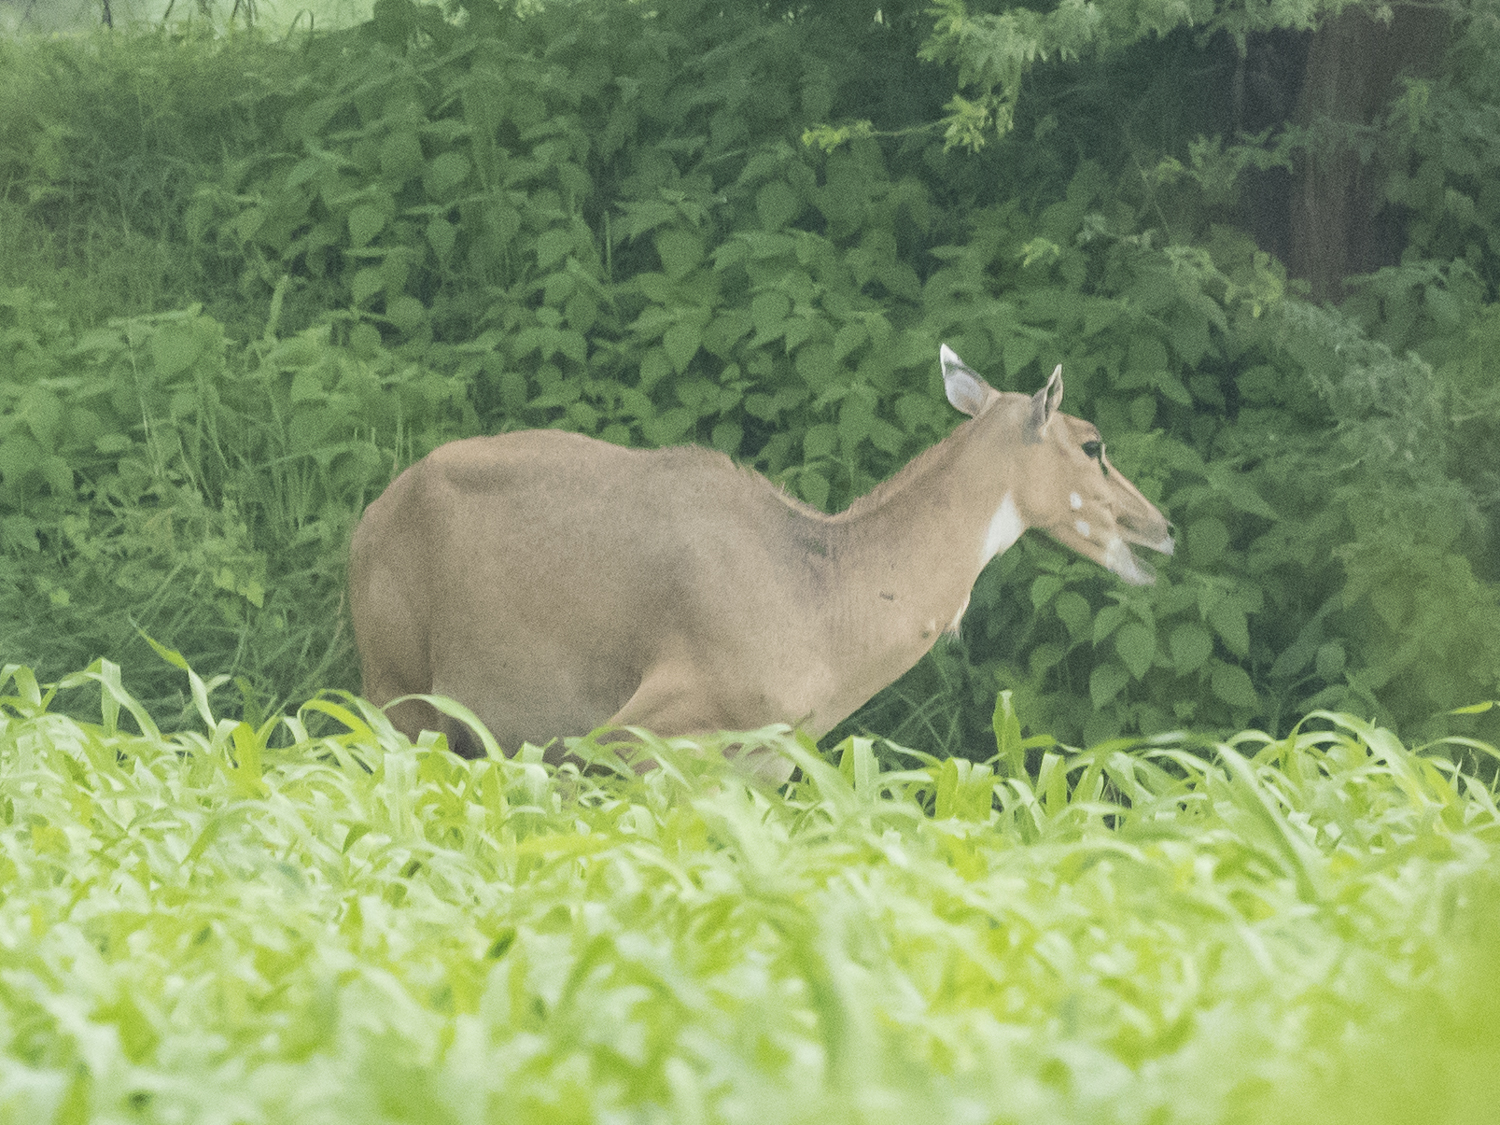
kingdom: Animalia
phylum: Chordata
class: Mammalia
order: Artiodactyla
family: Bovidae
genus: Boselaphus
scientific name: Boselaphus tragocamelus
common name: Nilgai
